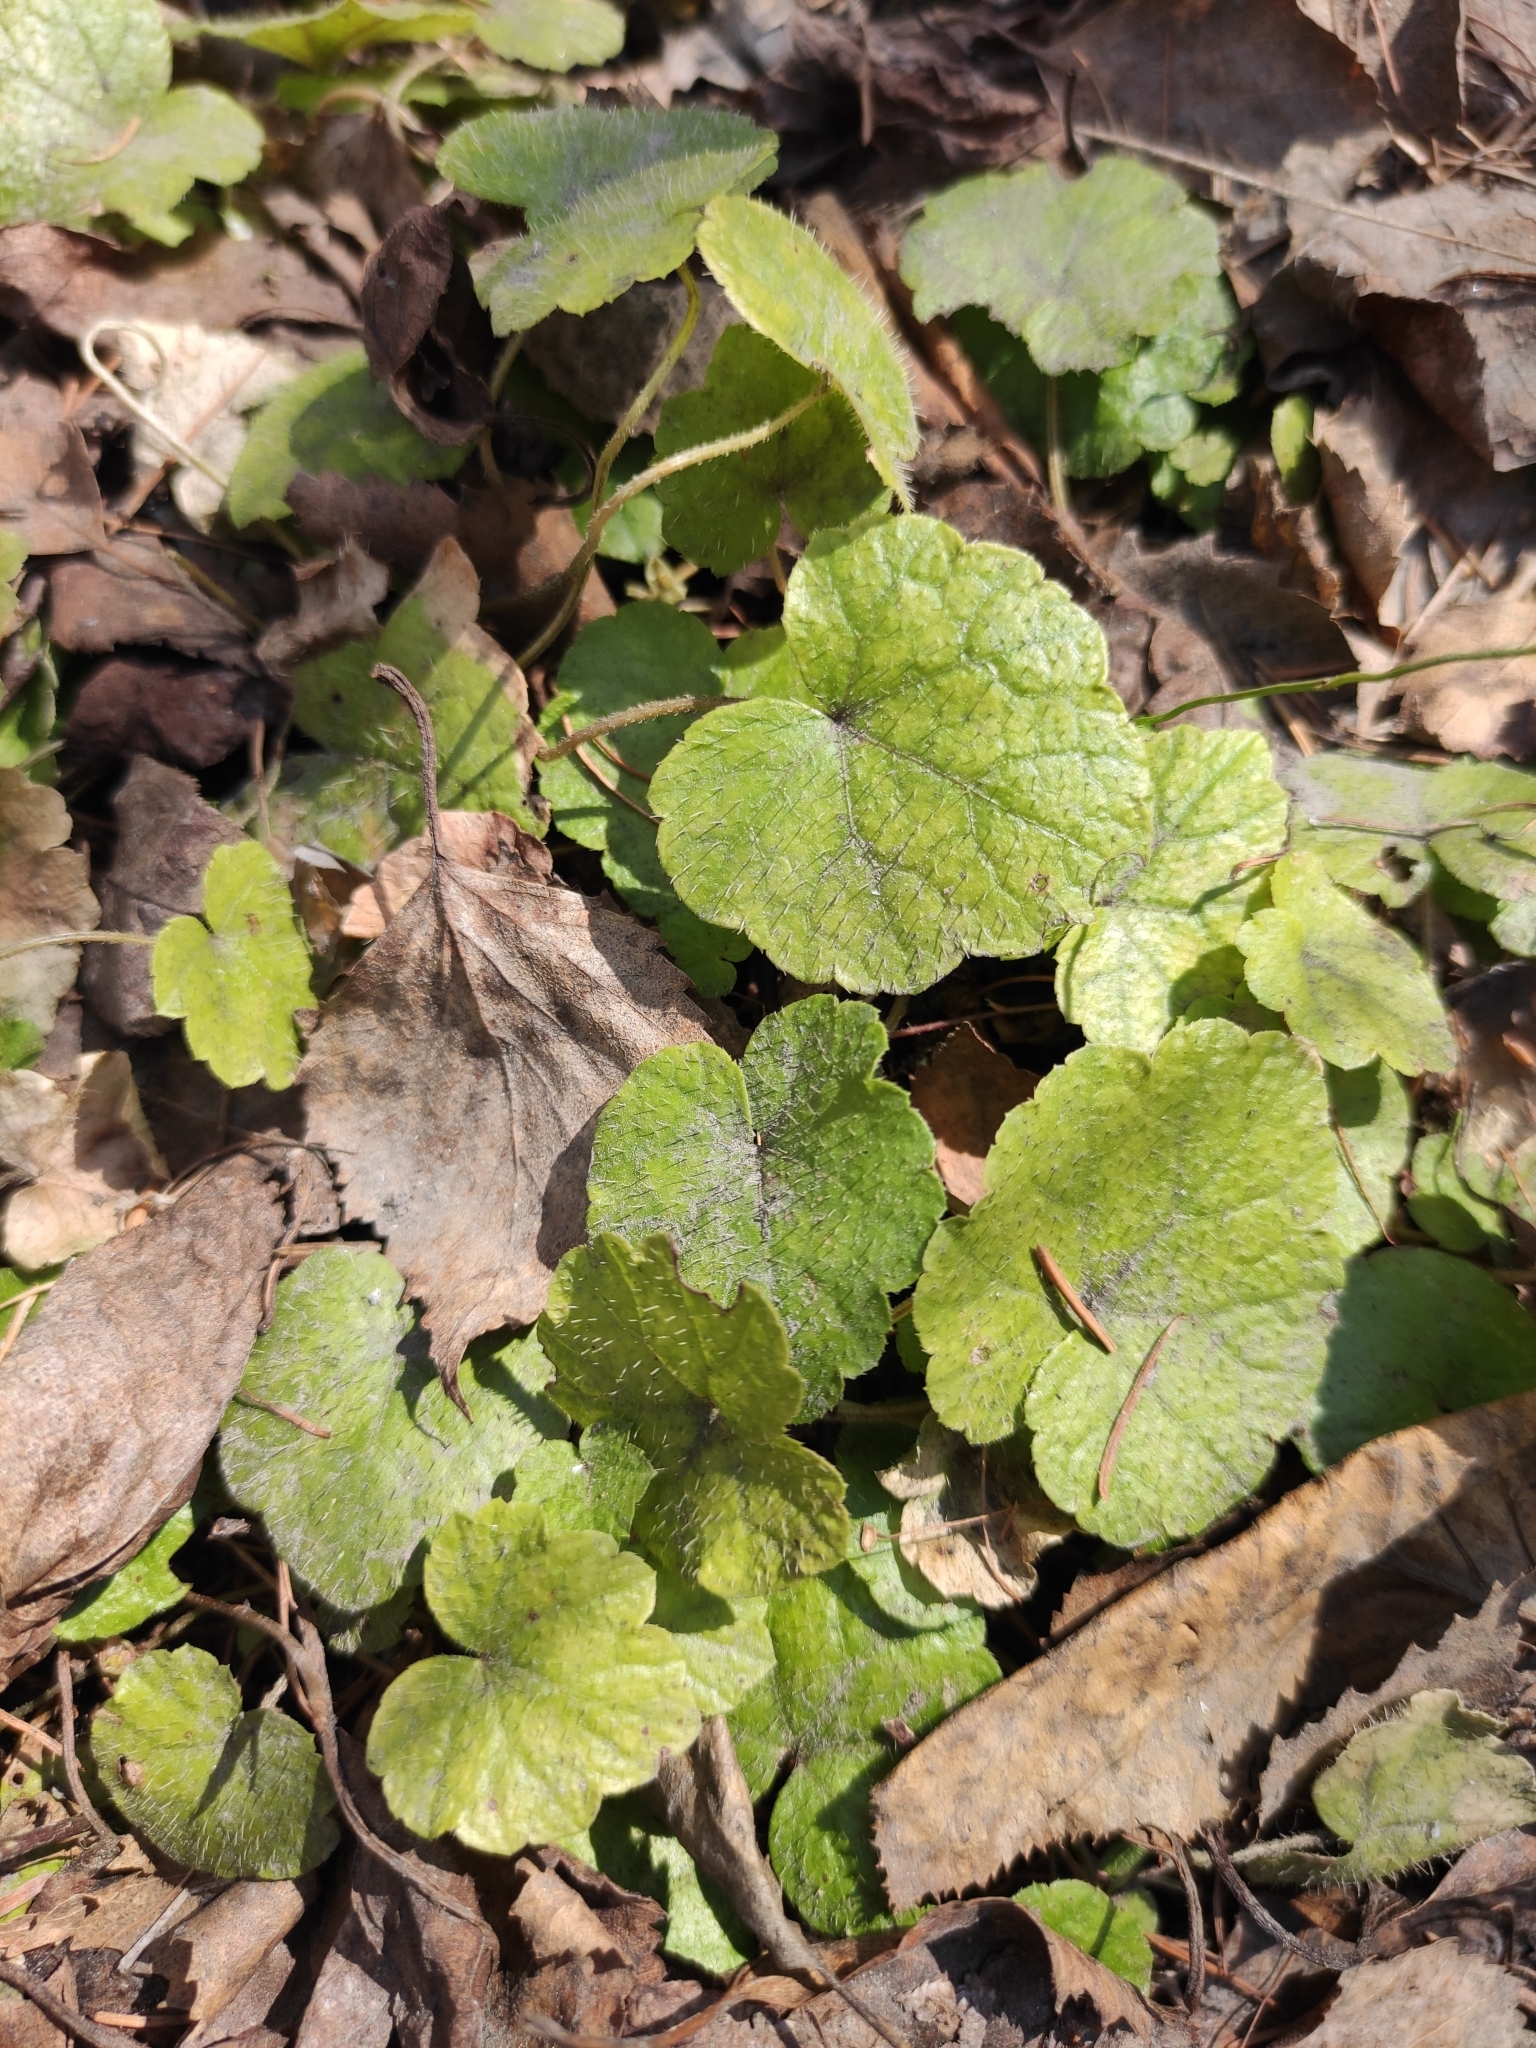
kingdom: Plantae
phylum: Tracheophyta
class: Magnoliopsida
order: Saxifragales
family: Saxifragaceae
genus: Mitella
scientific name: Mitella nuda
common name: Bare-stemmed bishop's-cap
